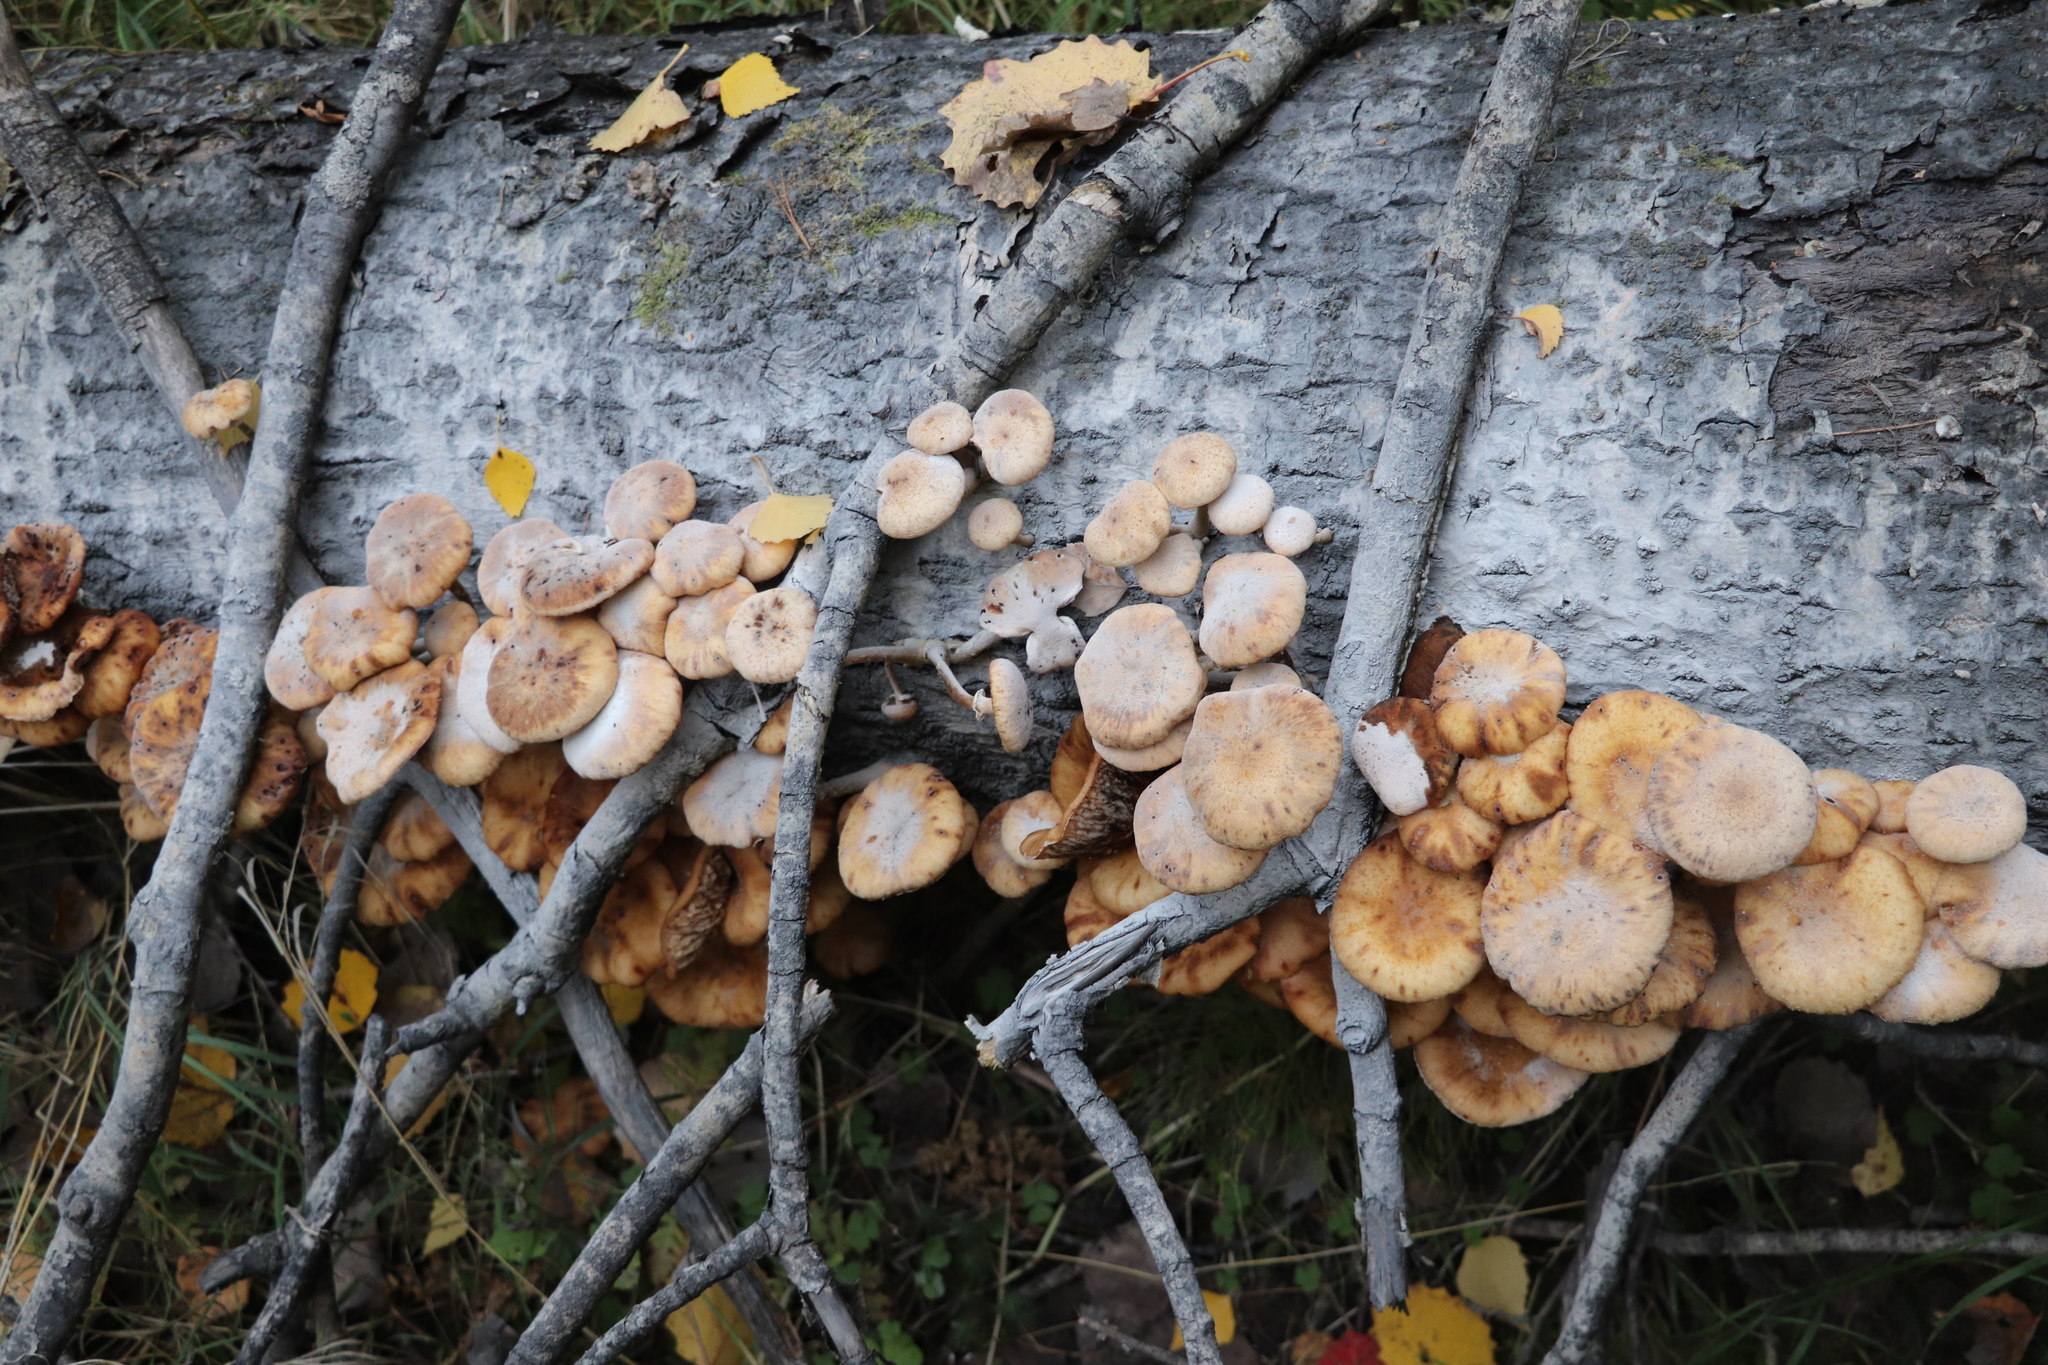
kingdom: Fungi
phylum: Basidiomycota
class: Agaricomycetes
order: Agaricales
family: Physalacriaceae
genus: Armillaria
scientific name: Armillaria mellea
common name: Honey fungus
